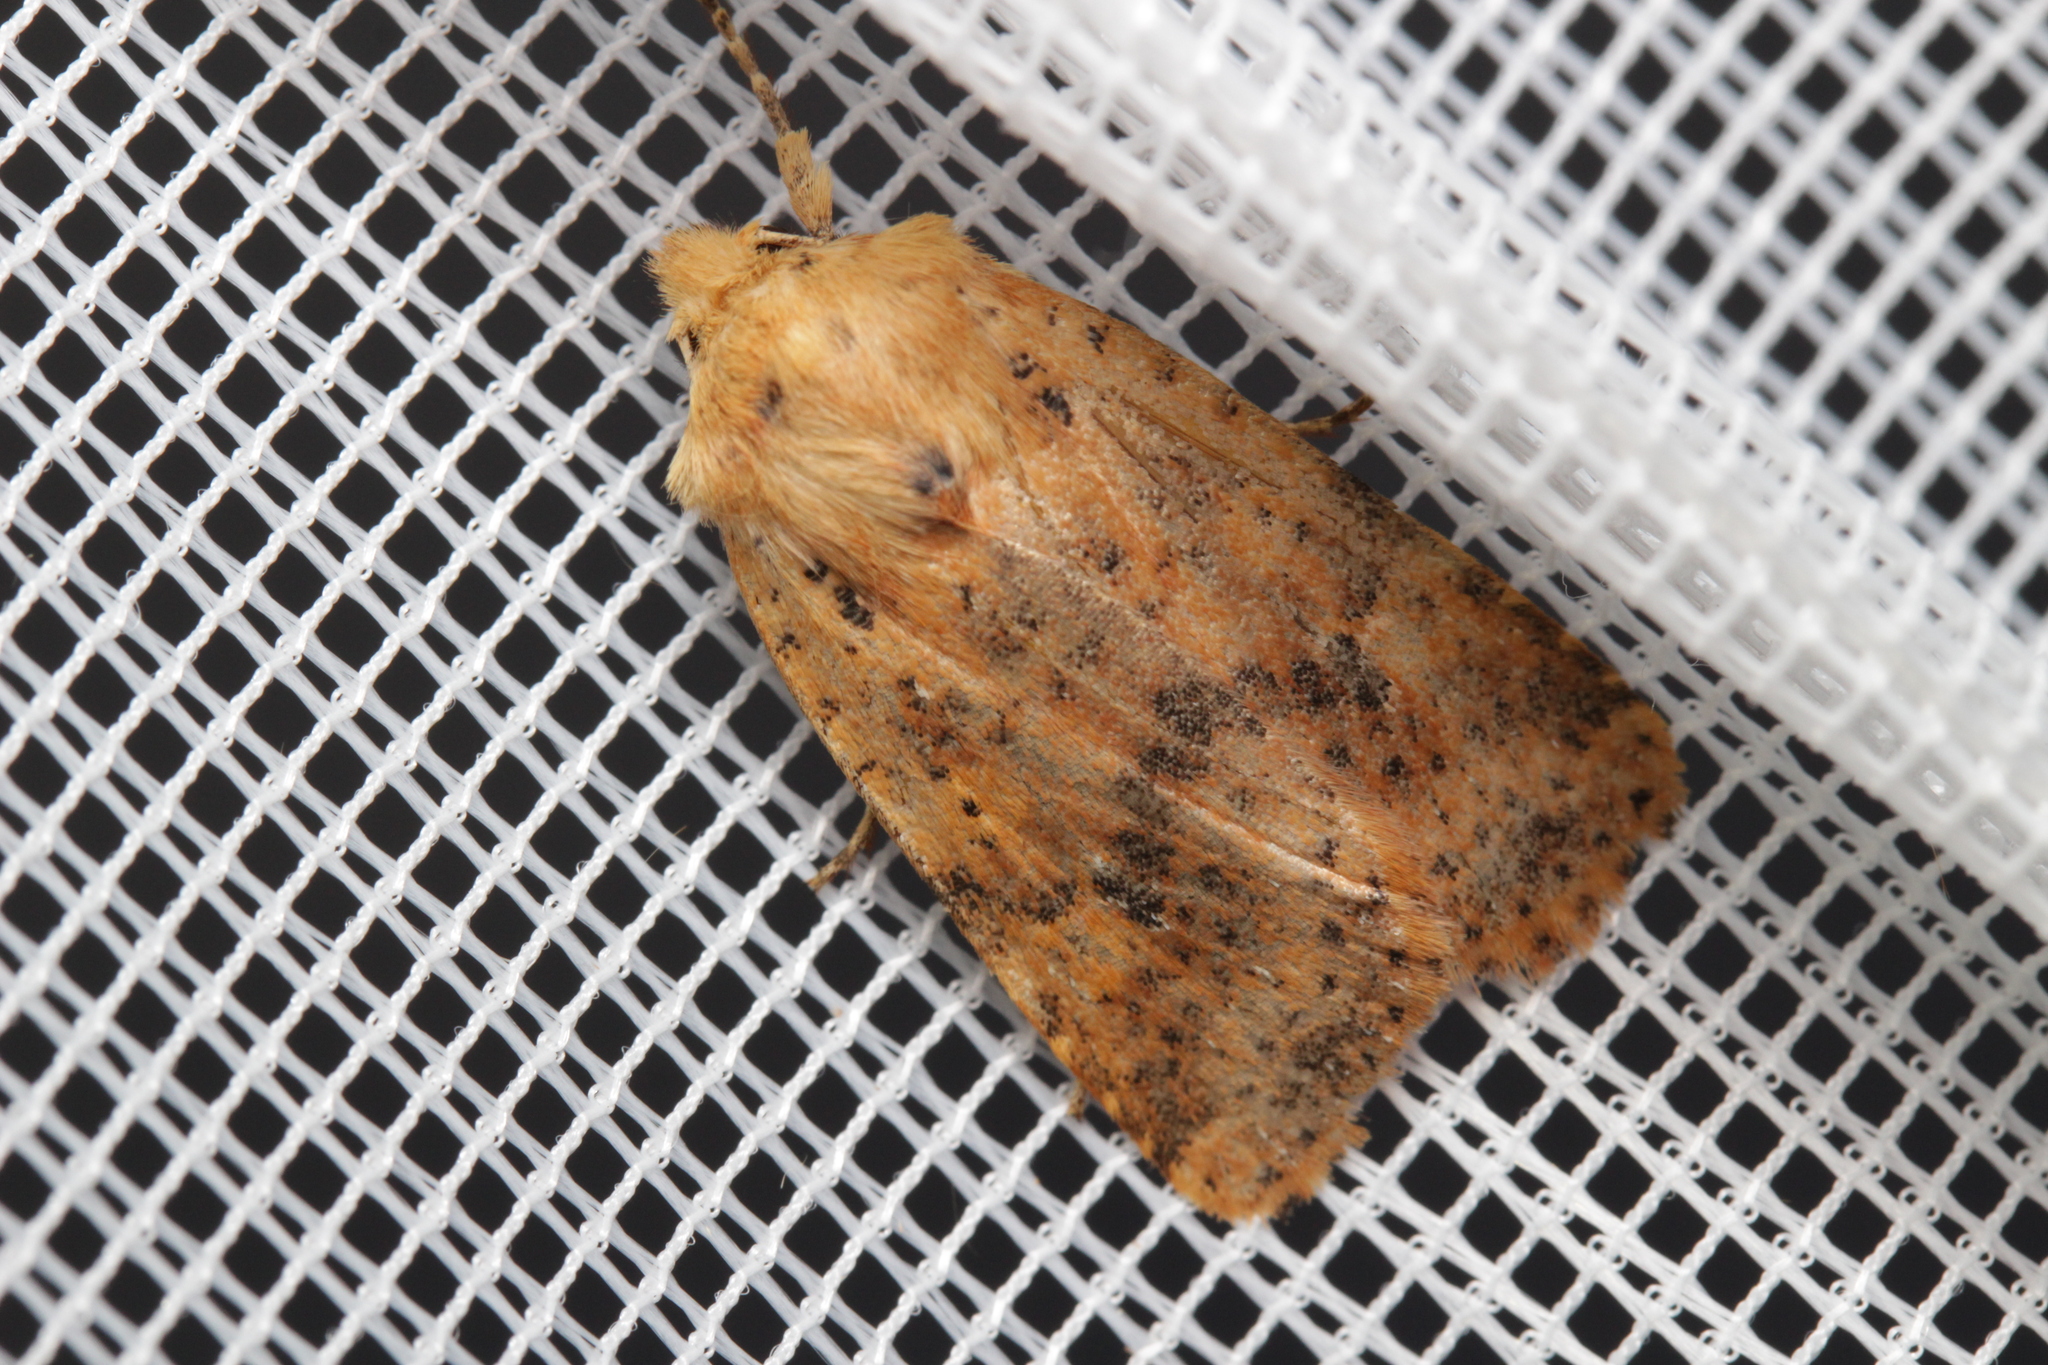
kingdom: Animalia
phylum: Arthropoda
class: Insecta
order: Lepidoptera
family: Noctuidae
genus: Conistra
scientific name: Conistra rubiginea
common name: Dotted chestnut
